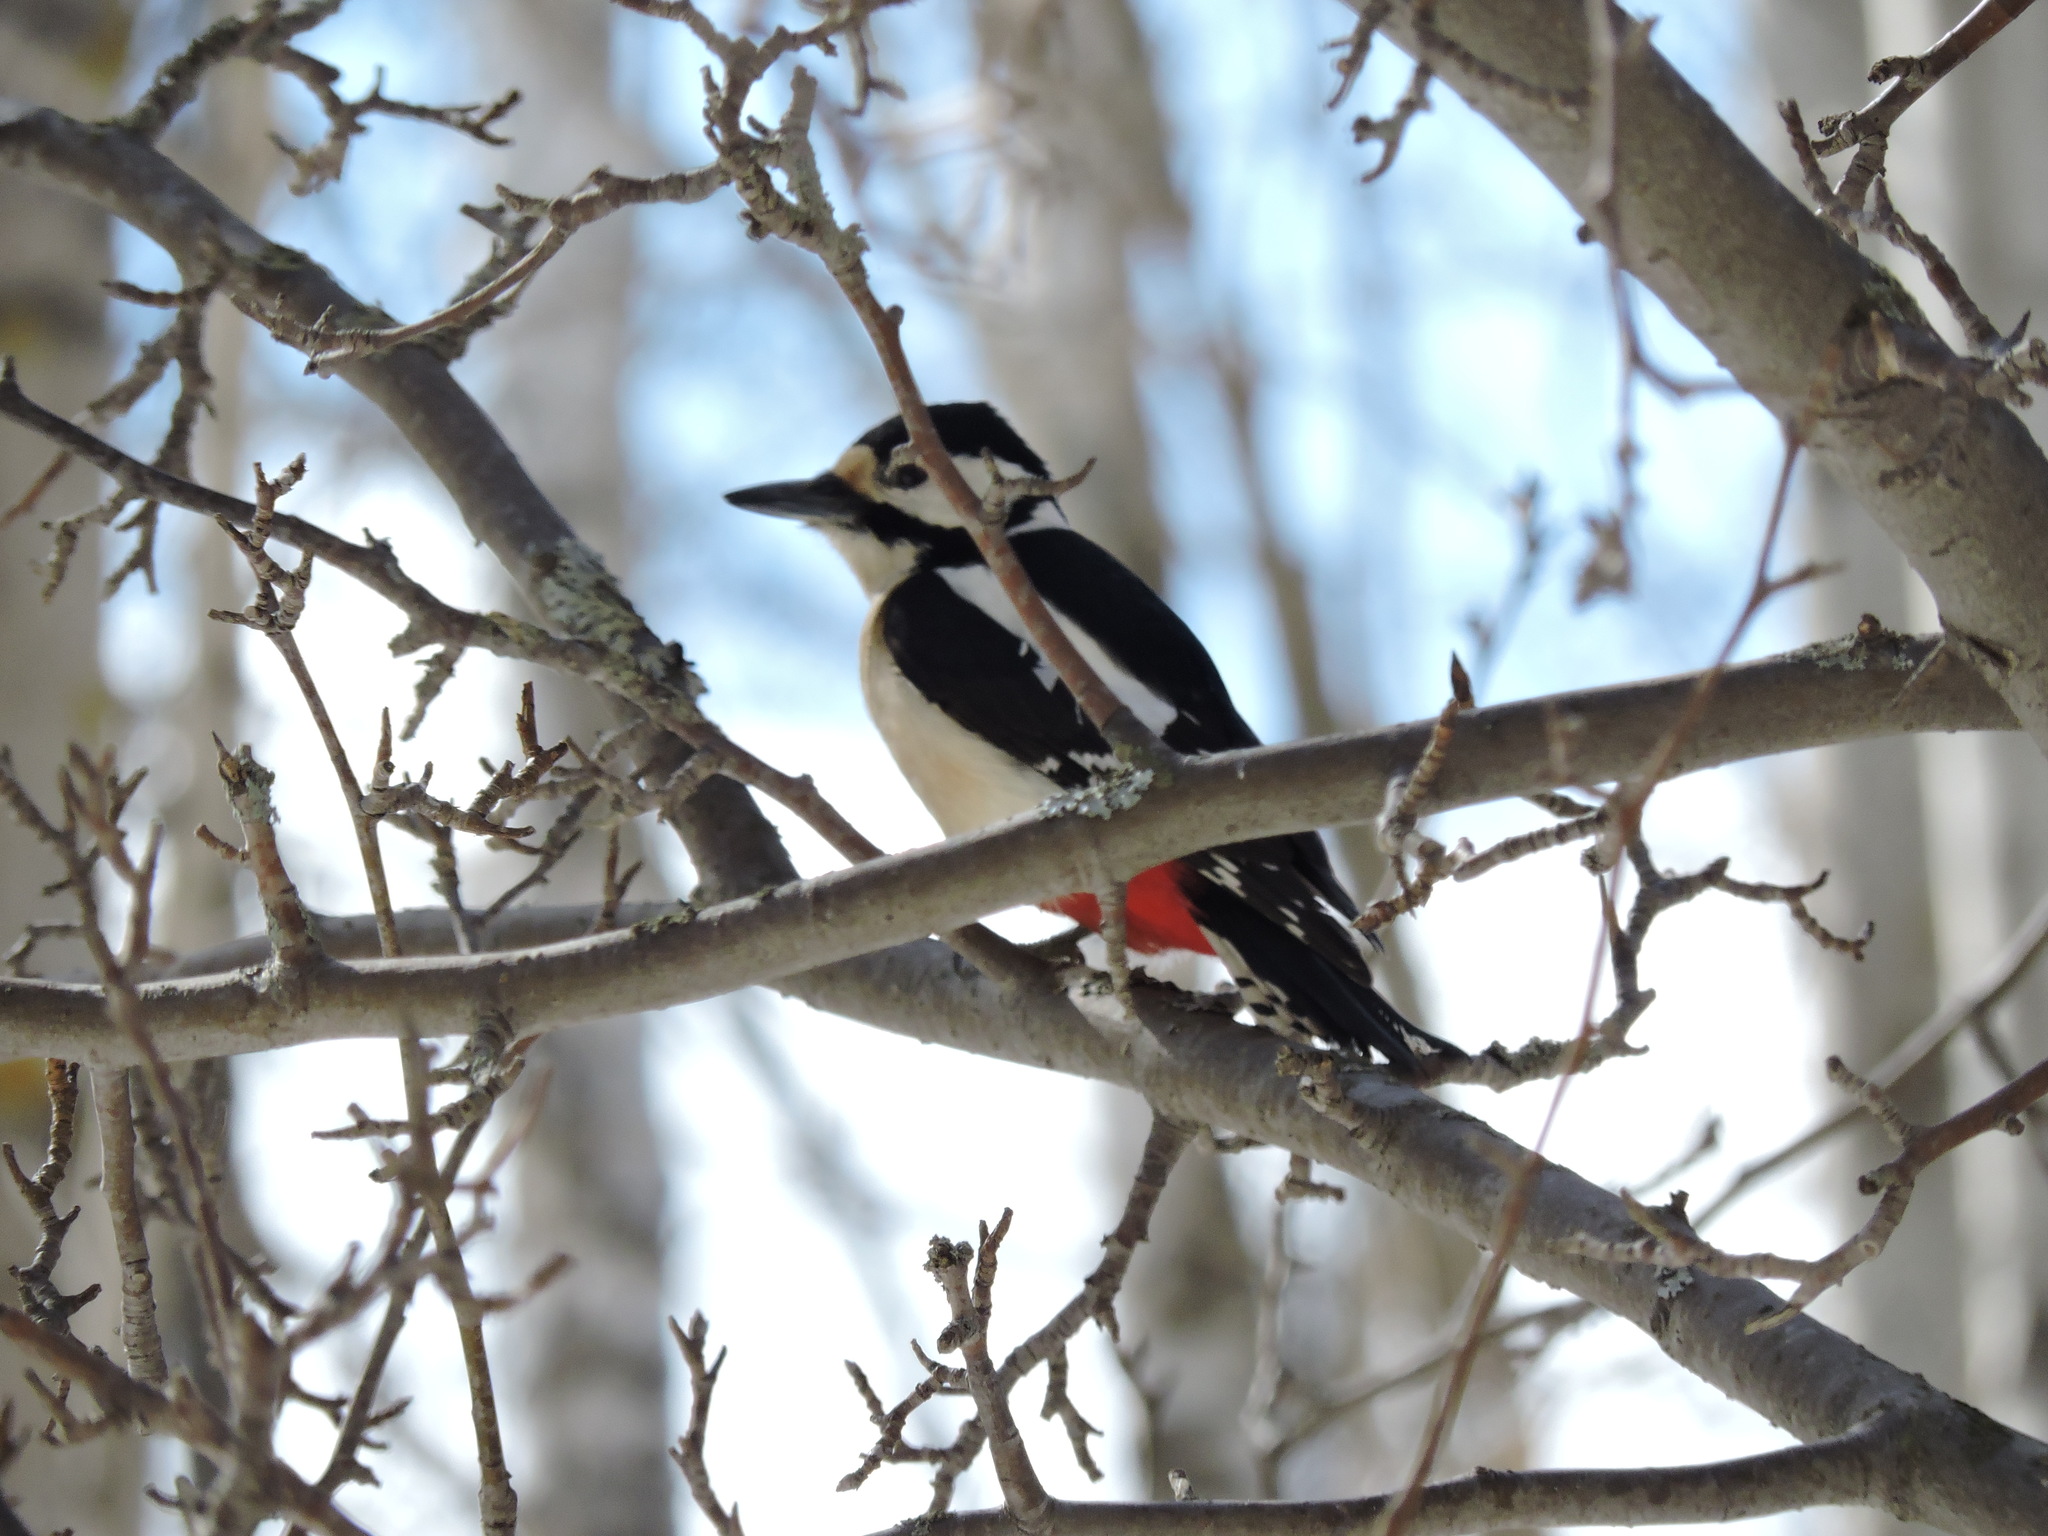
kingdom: Animalia
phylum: Chordata
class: Aves
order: Piciformes
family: Picidae
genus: Dendrocopos
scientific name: Dendrocopos major
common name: Great spotted woodpecker
